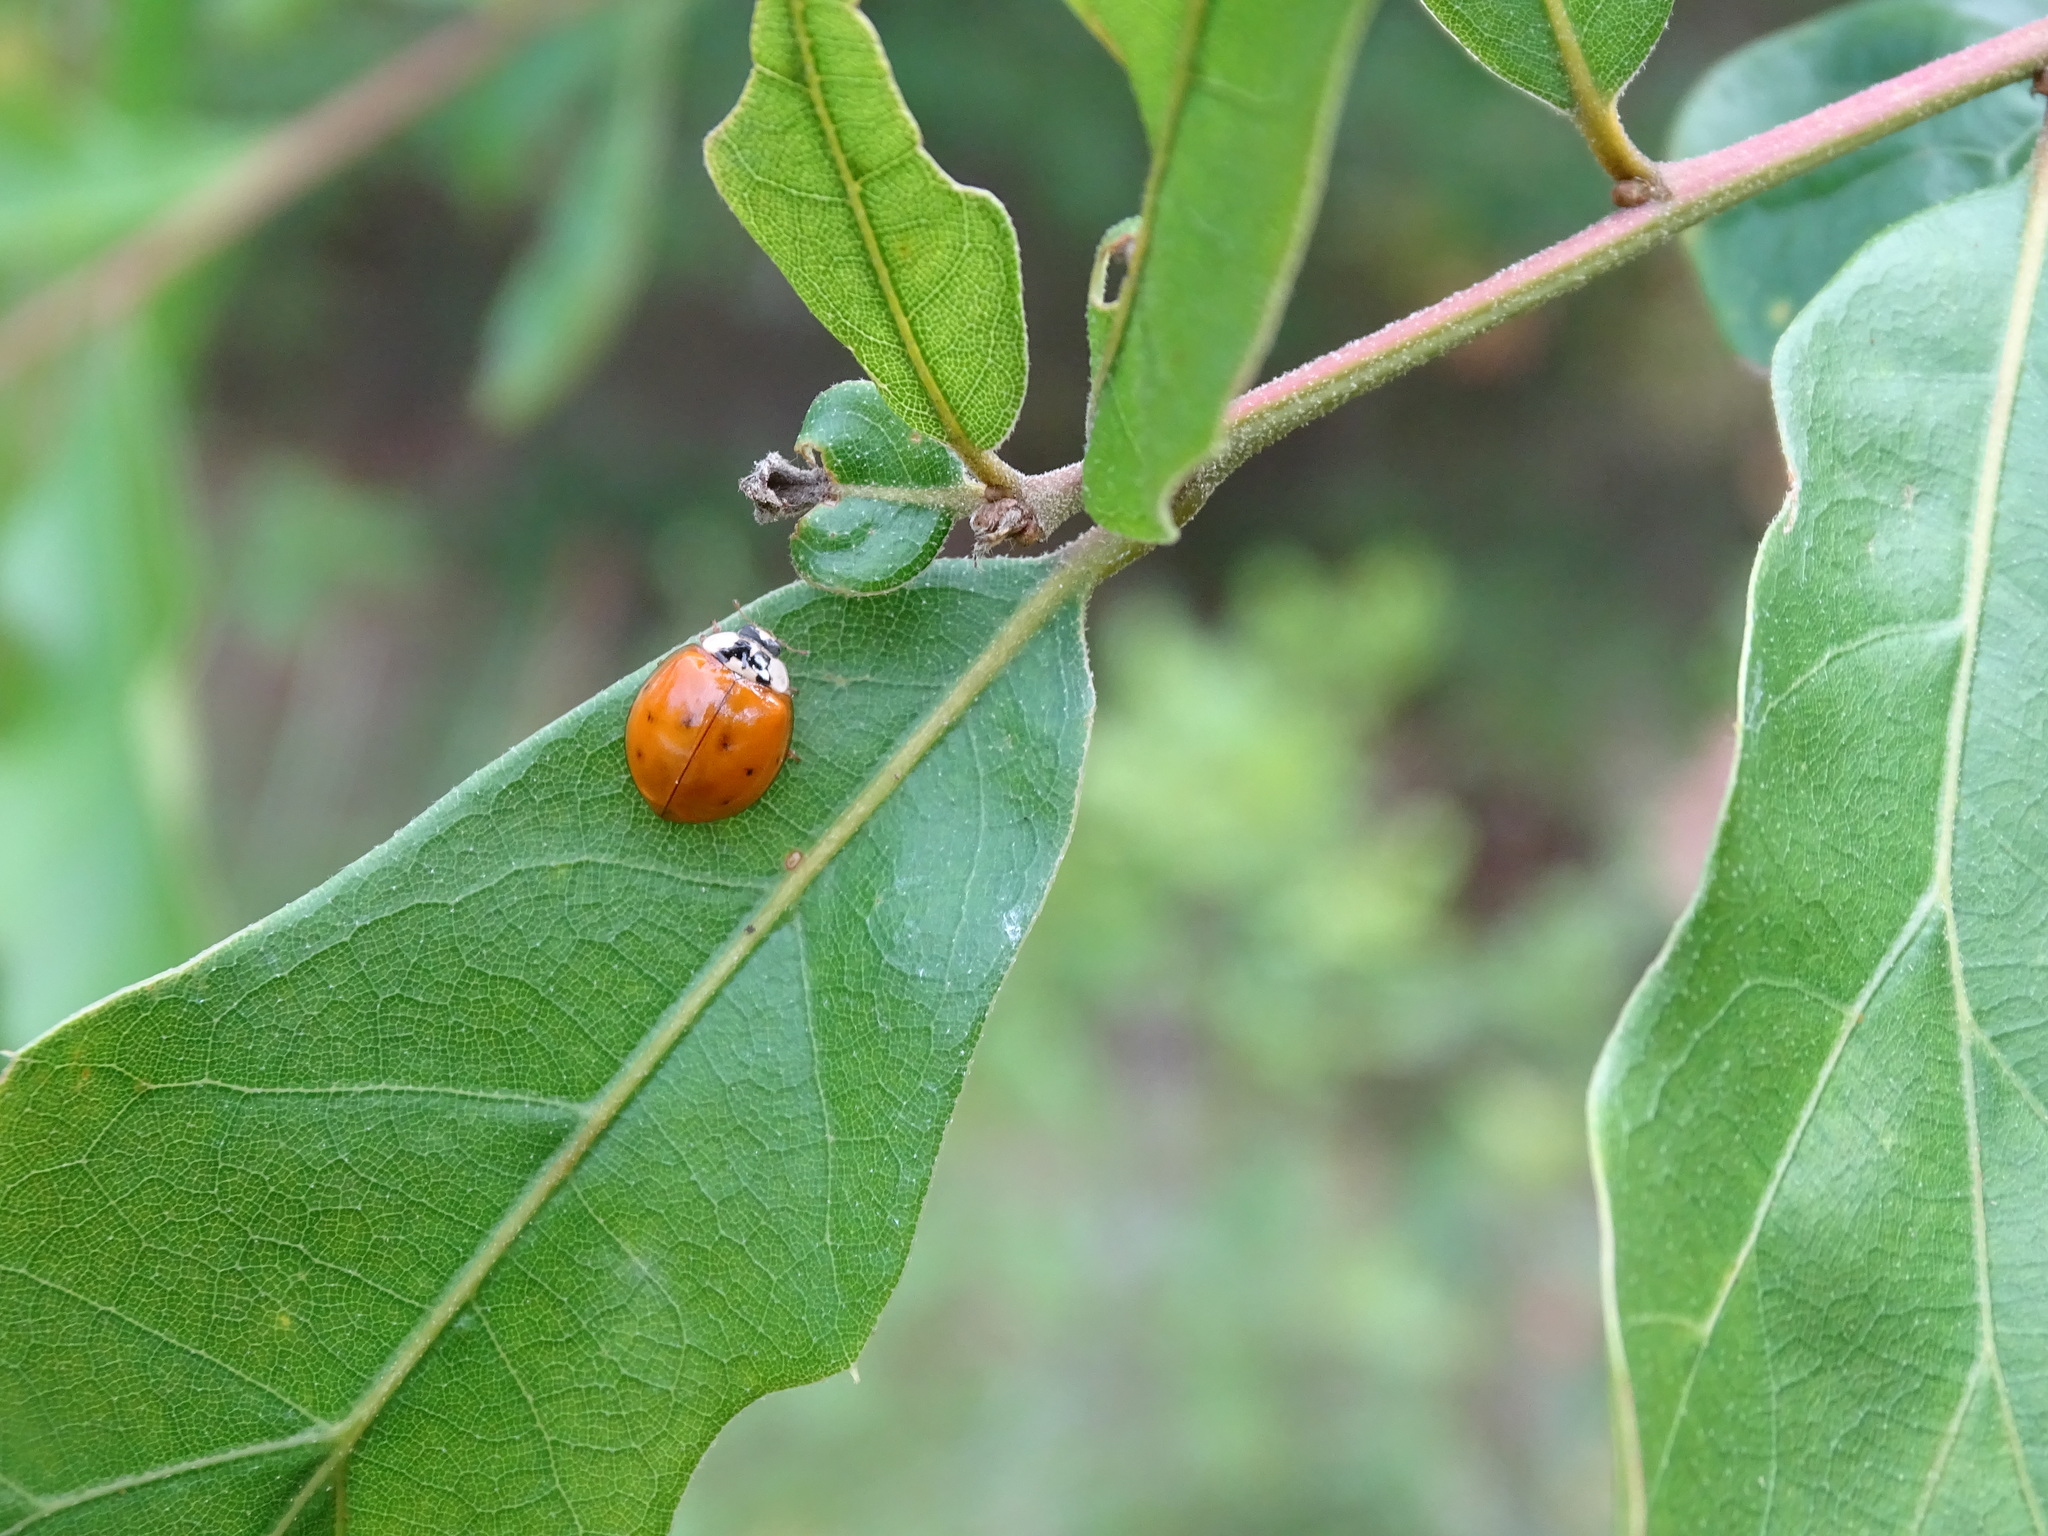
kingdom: Animalia
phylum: Arthropoda
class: Insecta
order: Coleoptera
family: Coccinellidae
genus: Harmonia
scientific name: Harmonia axyridis
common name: Harlequin ladybird
